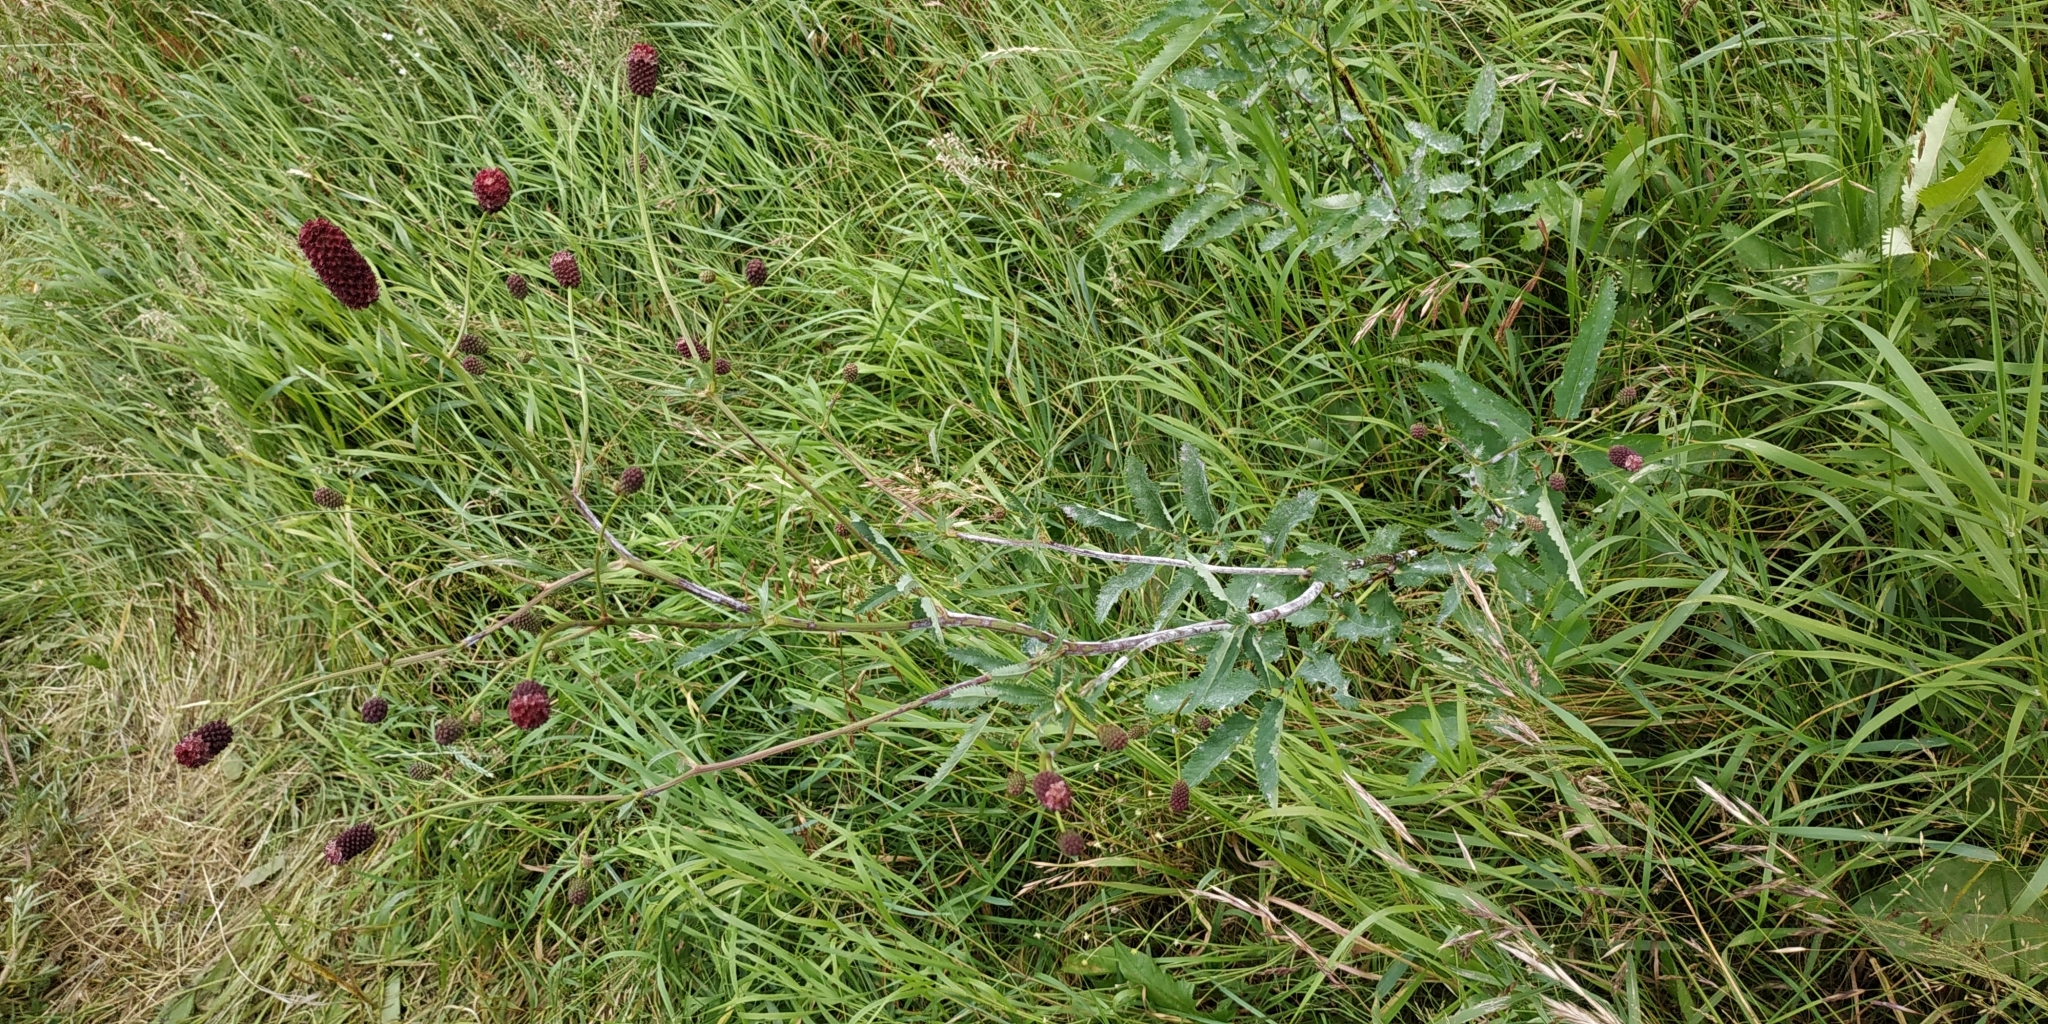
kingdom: Plantae
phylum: Tracheophyta
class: Magnoliopsida
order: Rosales
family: Rosaceae
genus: Sanguisorba
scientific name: Sanguisorba officinalis
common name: Great burnet
